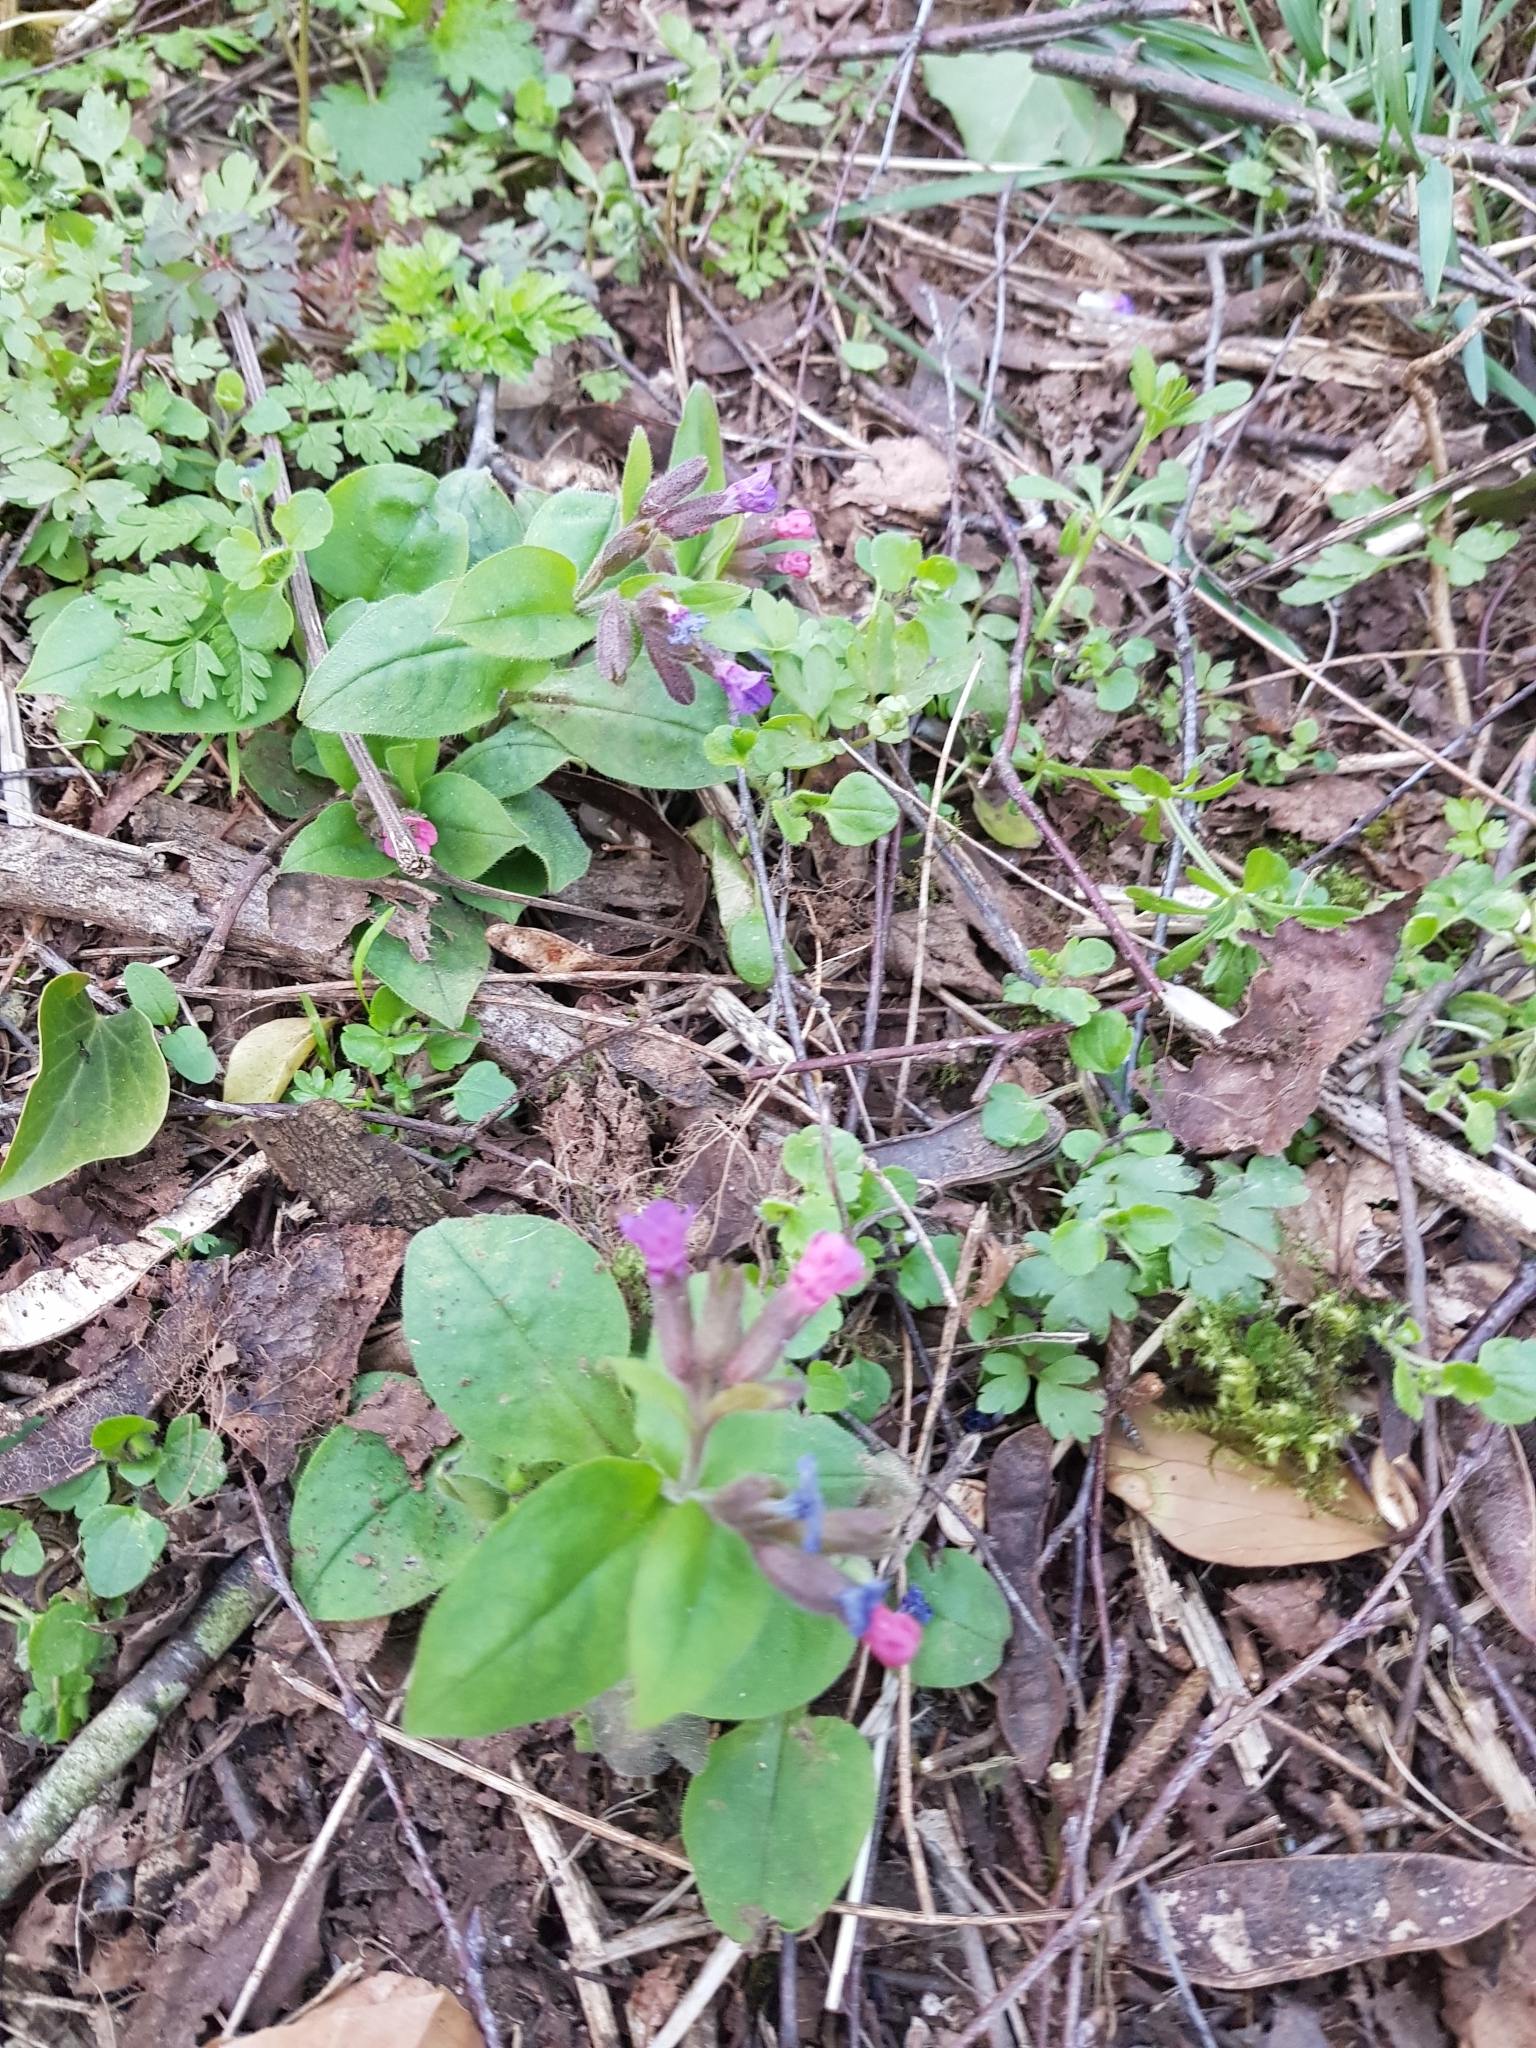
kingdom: Plantae
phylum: Tracheophyta
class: Magnoliopsida
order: Boraginales
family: Boraginaceae
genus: Pulmonaria
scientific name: Pulmonaria obscura
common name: Suffolk lungwort
